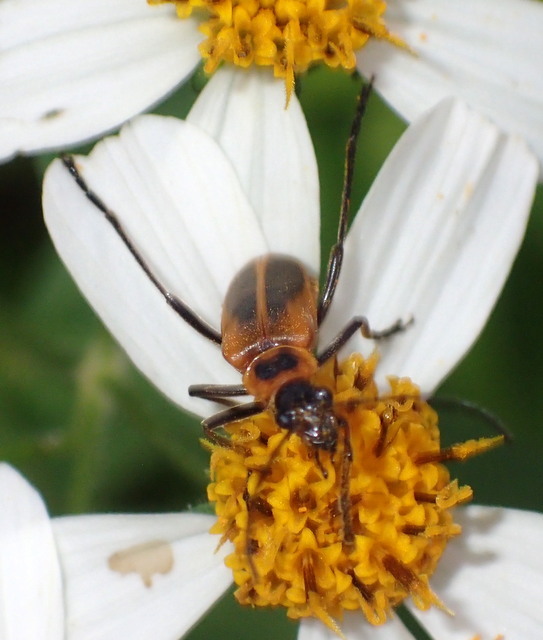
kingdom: Animalia
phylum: Arthropoda
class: Insecta
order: Coleoptera
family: Cantharidae
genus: Chauliognathus
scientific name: Chauliognathus pensylvanicus
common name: Goldenrod soldier beetle
